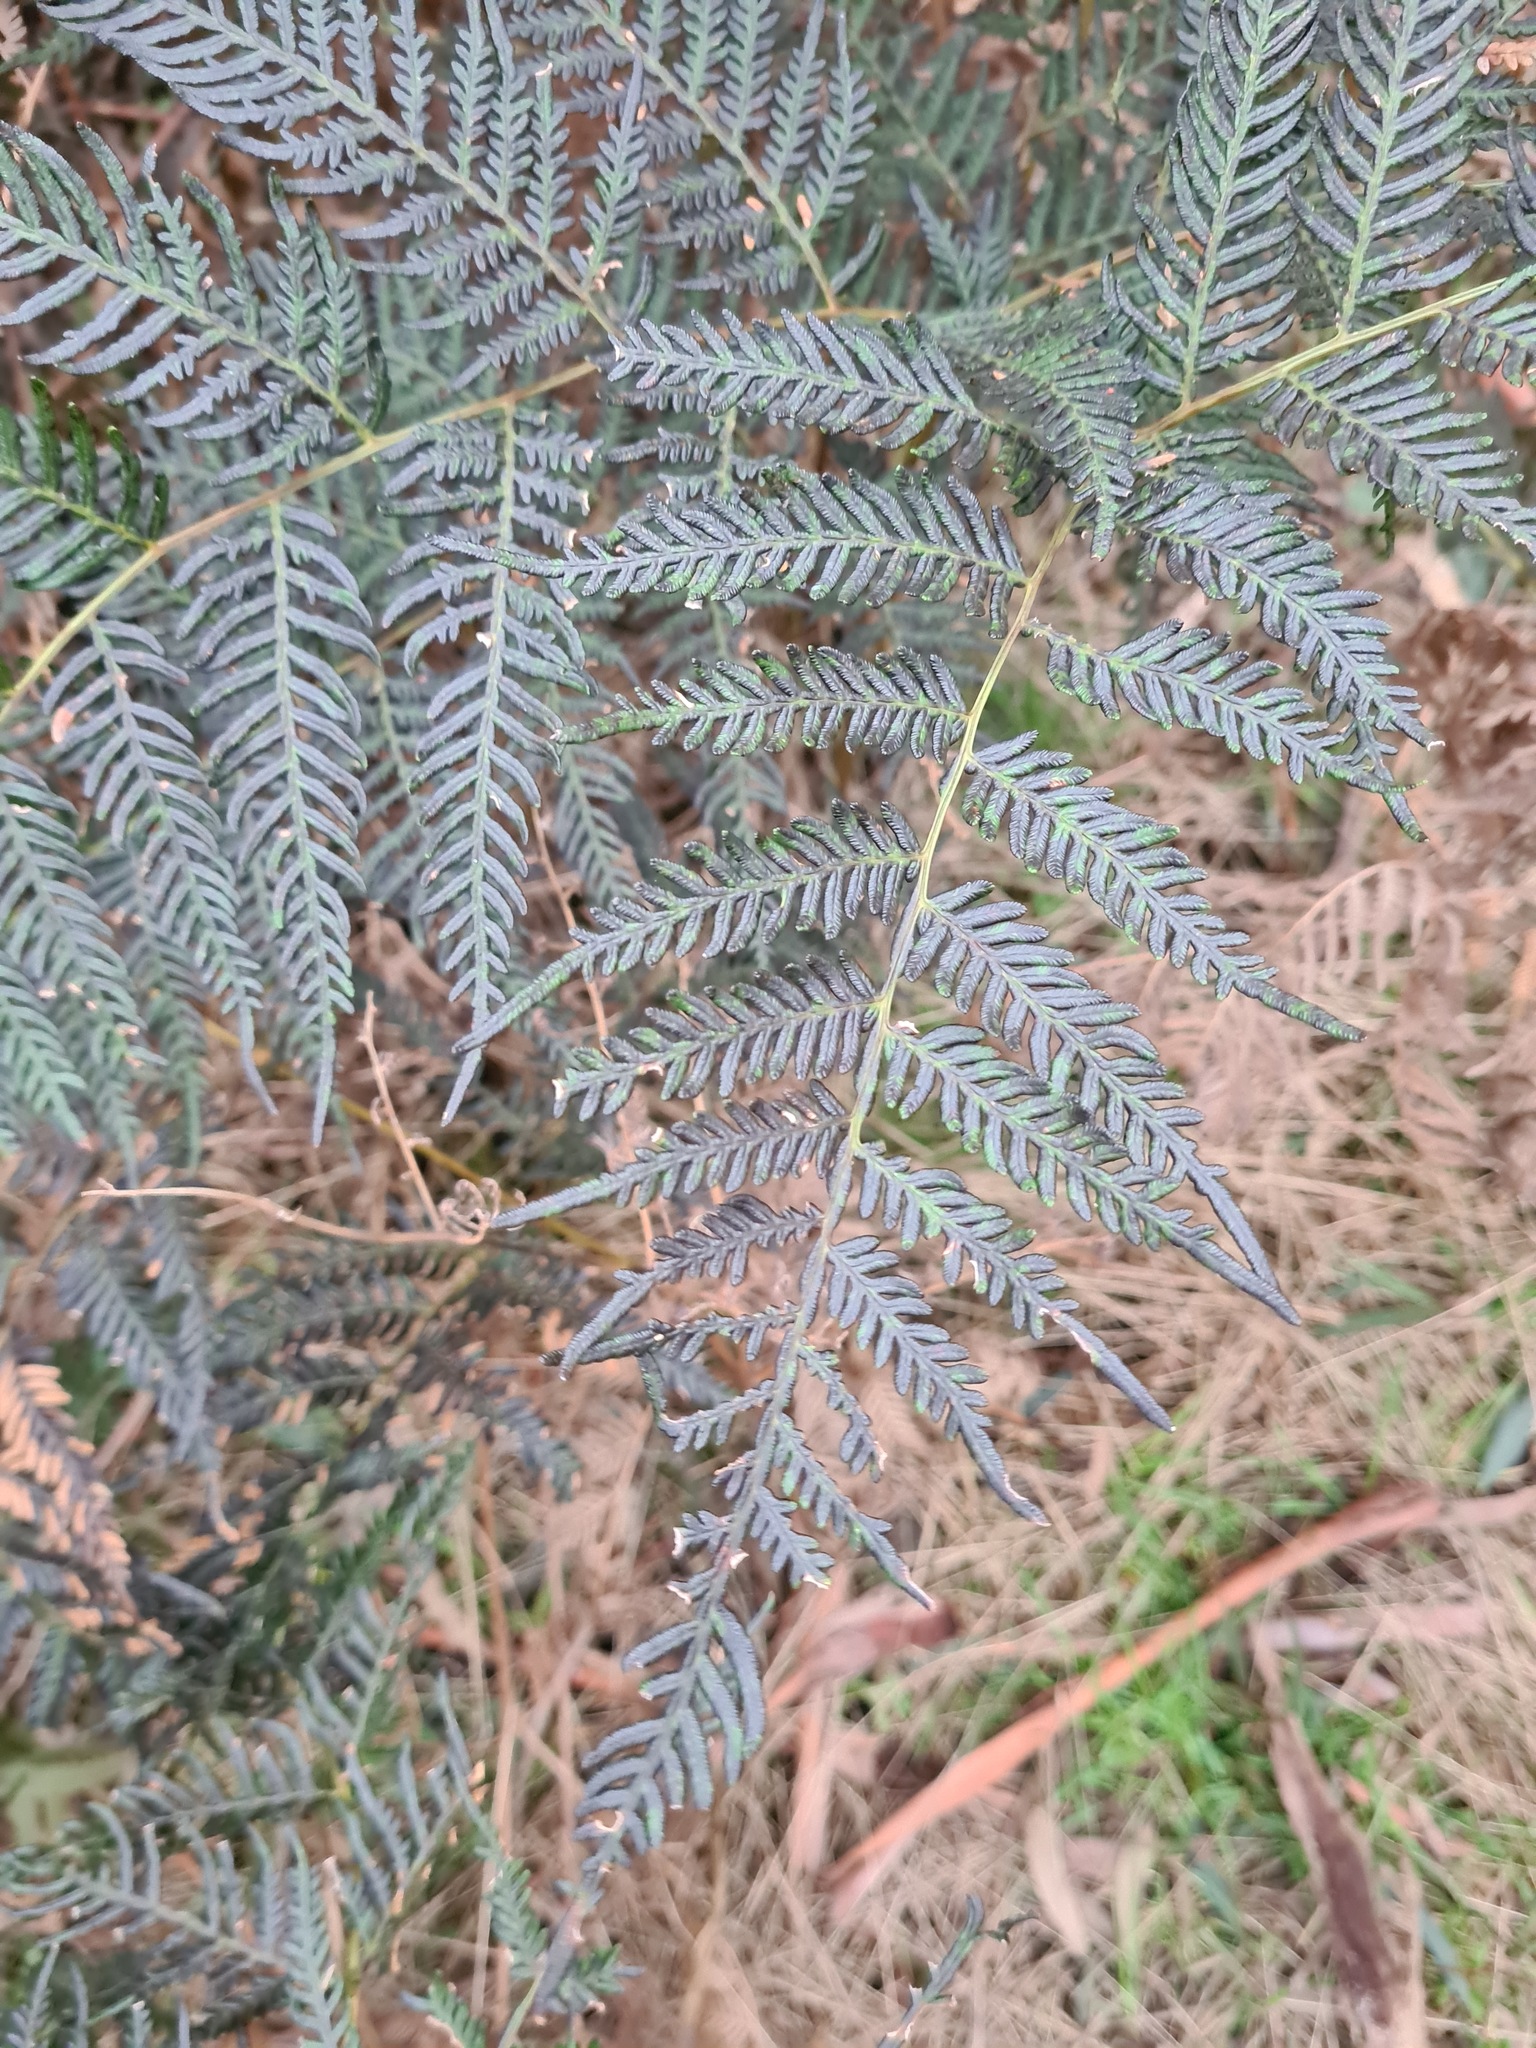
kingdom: Plantae
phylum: Tracheophyta
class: Polypodiopsida
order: Polypodiales
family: Dennstaedtiaceae
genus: Pteridium
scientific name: Pteridium esculentum
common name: Bracken fern
